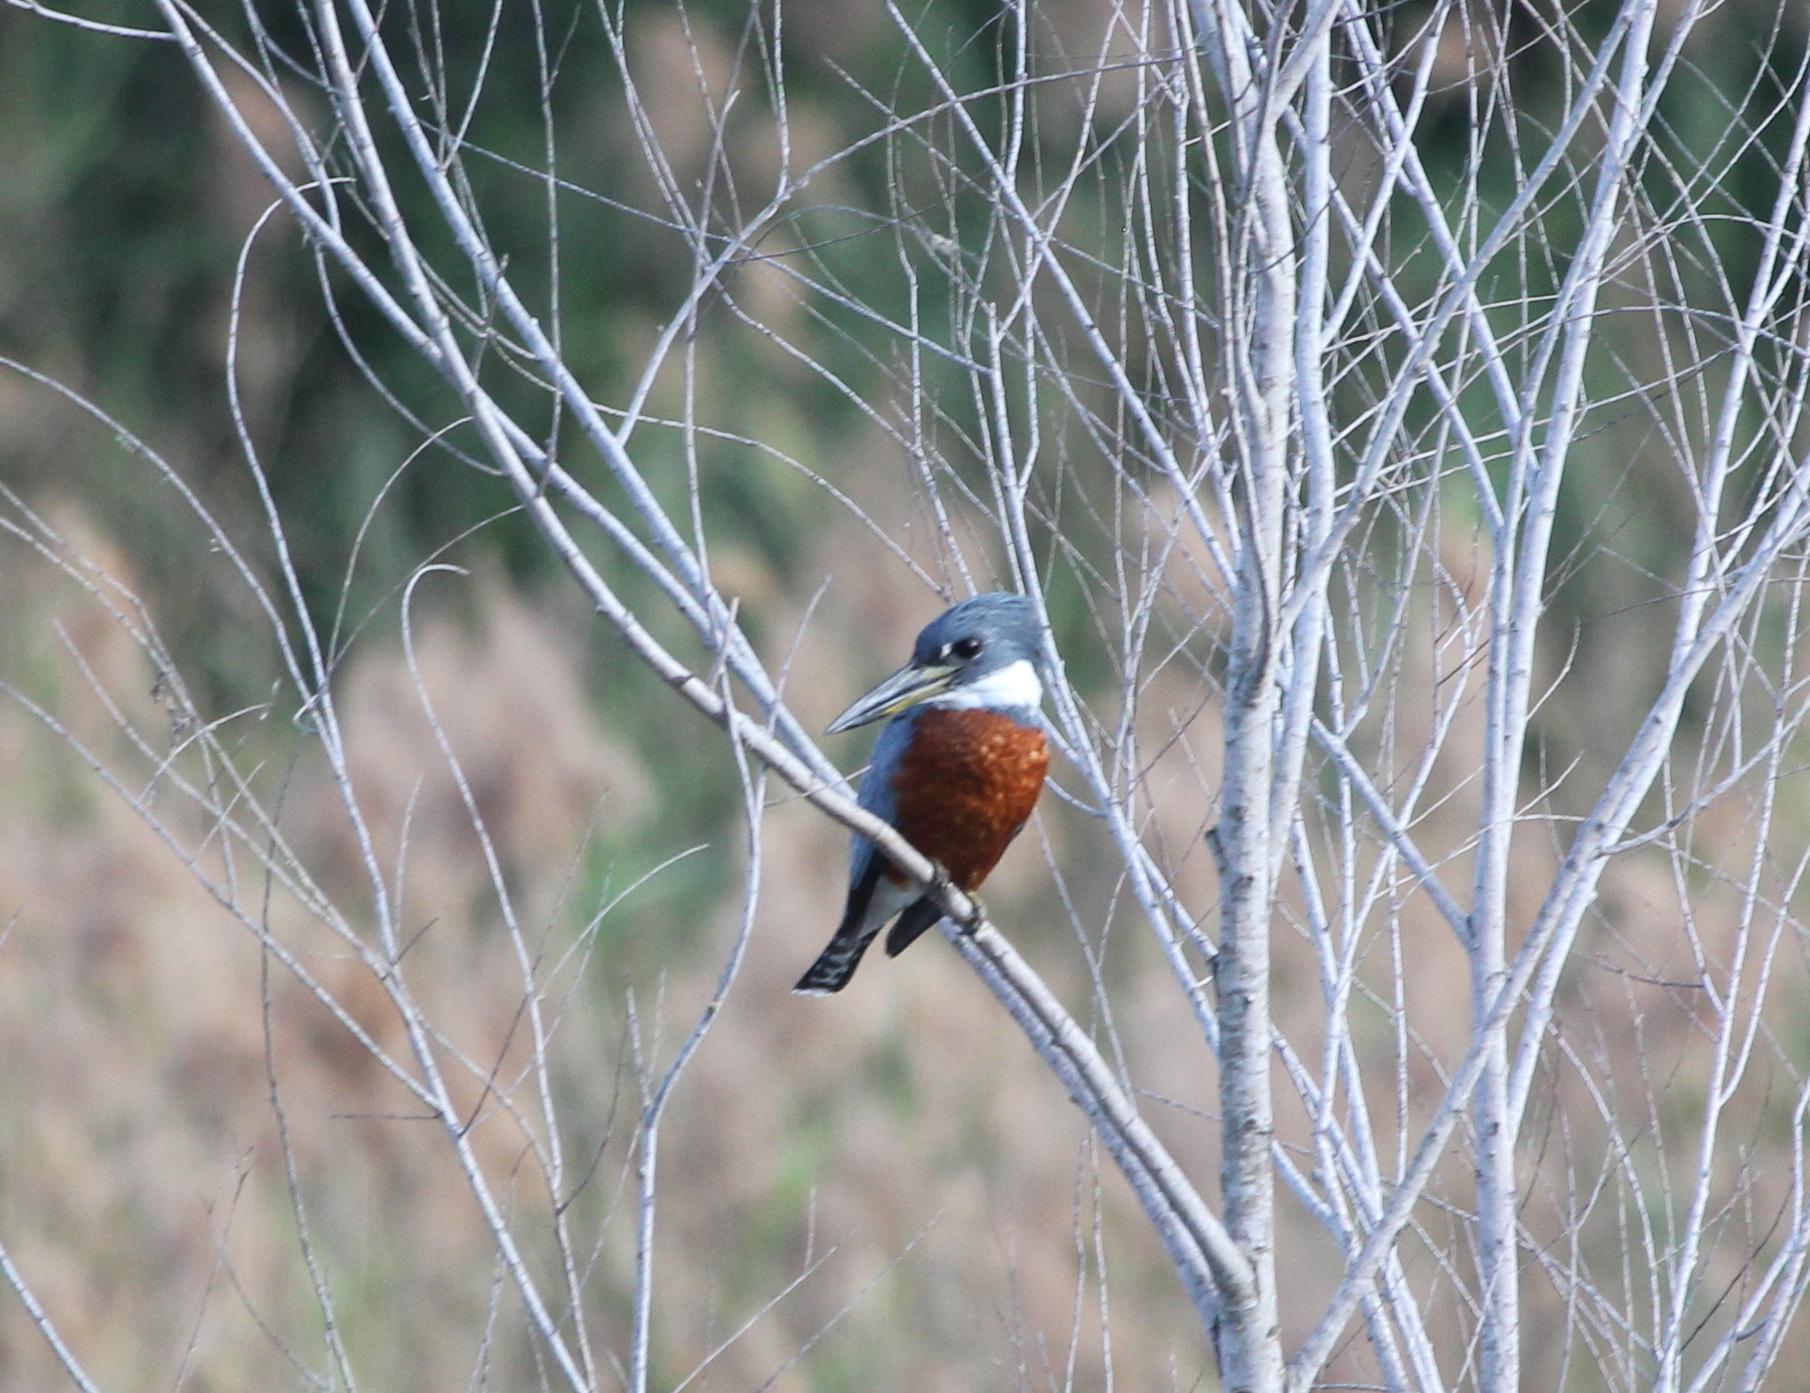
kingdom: Animalia
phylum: Chordata
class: Aves
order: Coraciiformes
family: Alcedinidae
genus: Megaceryle
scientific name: Megaceryle torquata
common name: Ringed kingfisher
